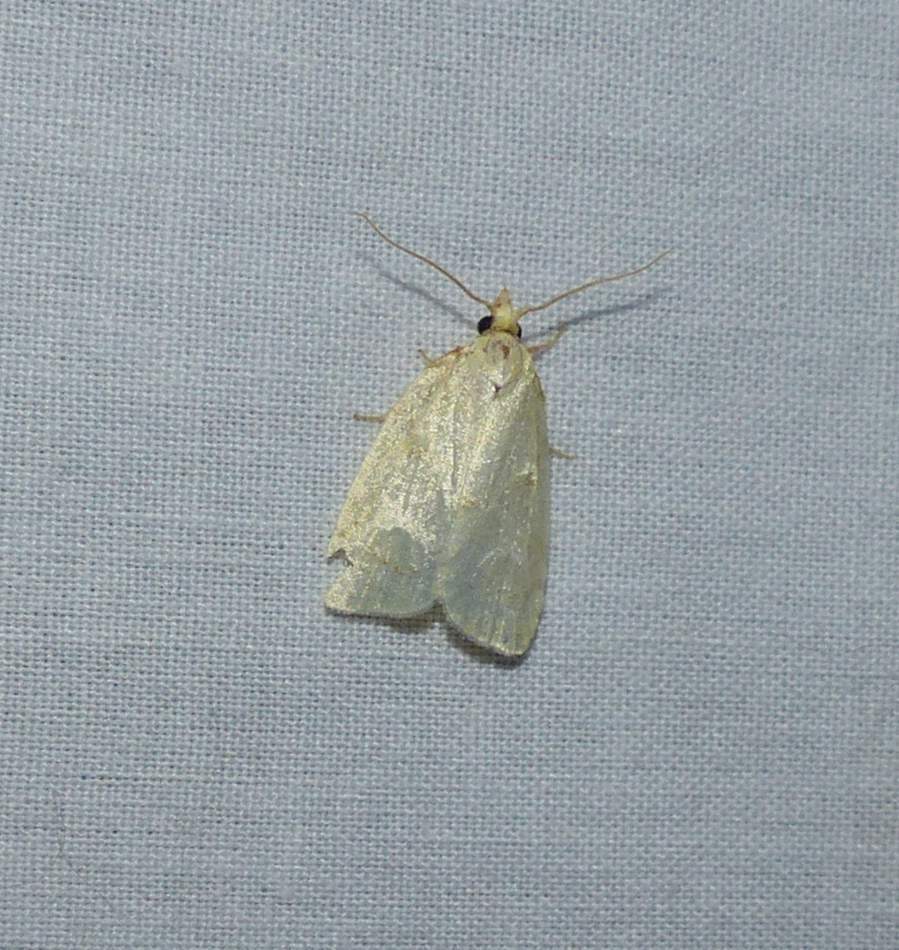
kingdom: Animalia
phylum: Arthropoda
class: Insecta
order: Lepidoptera
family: Tortricidae
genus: Cenopis
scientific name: Cenopis pettitana
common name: Maple-basswood leafroller moth
